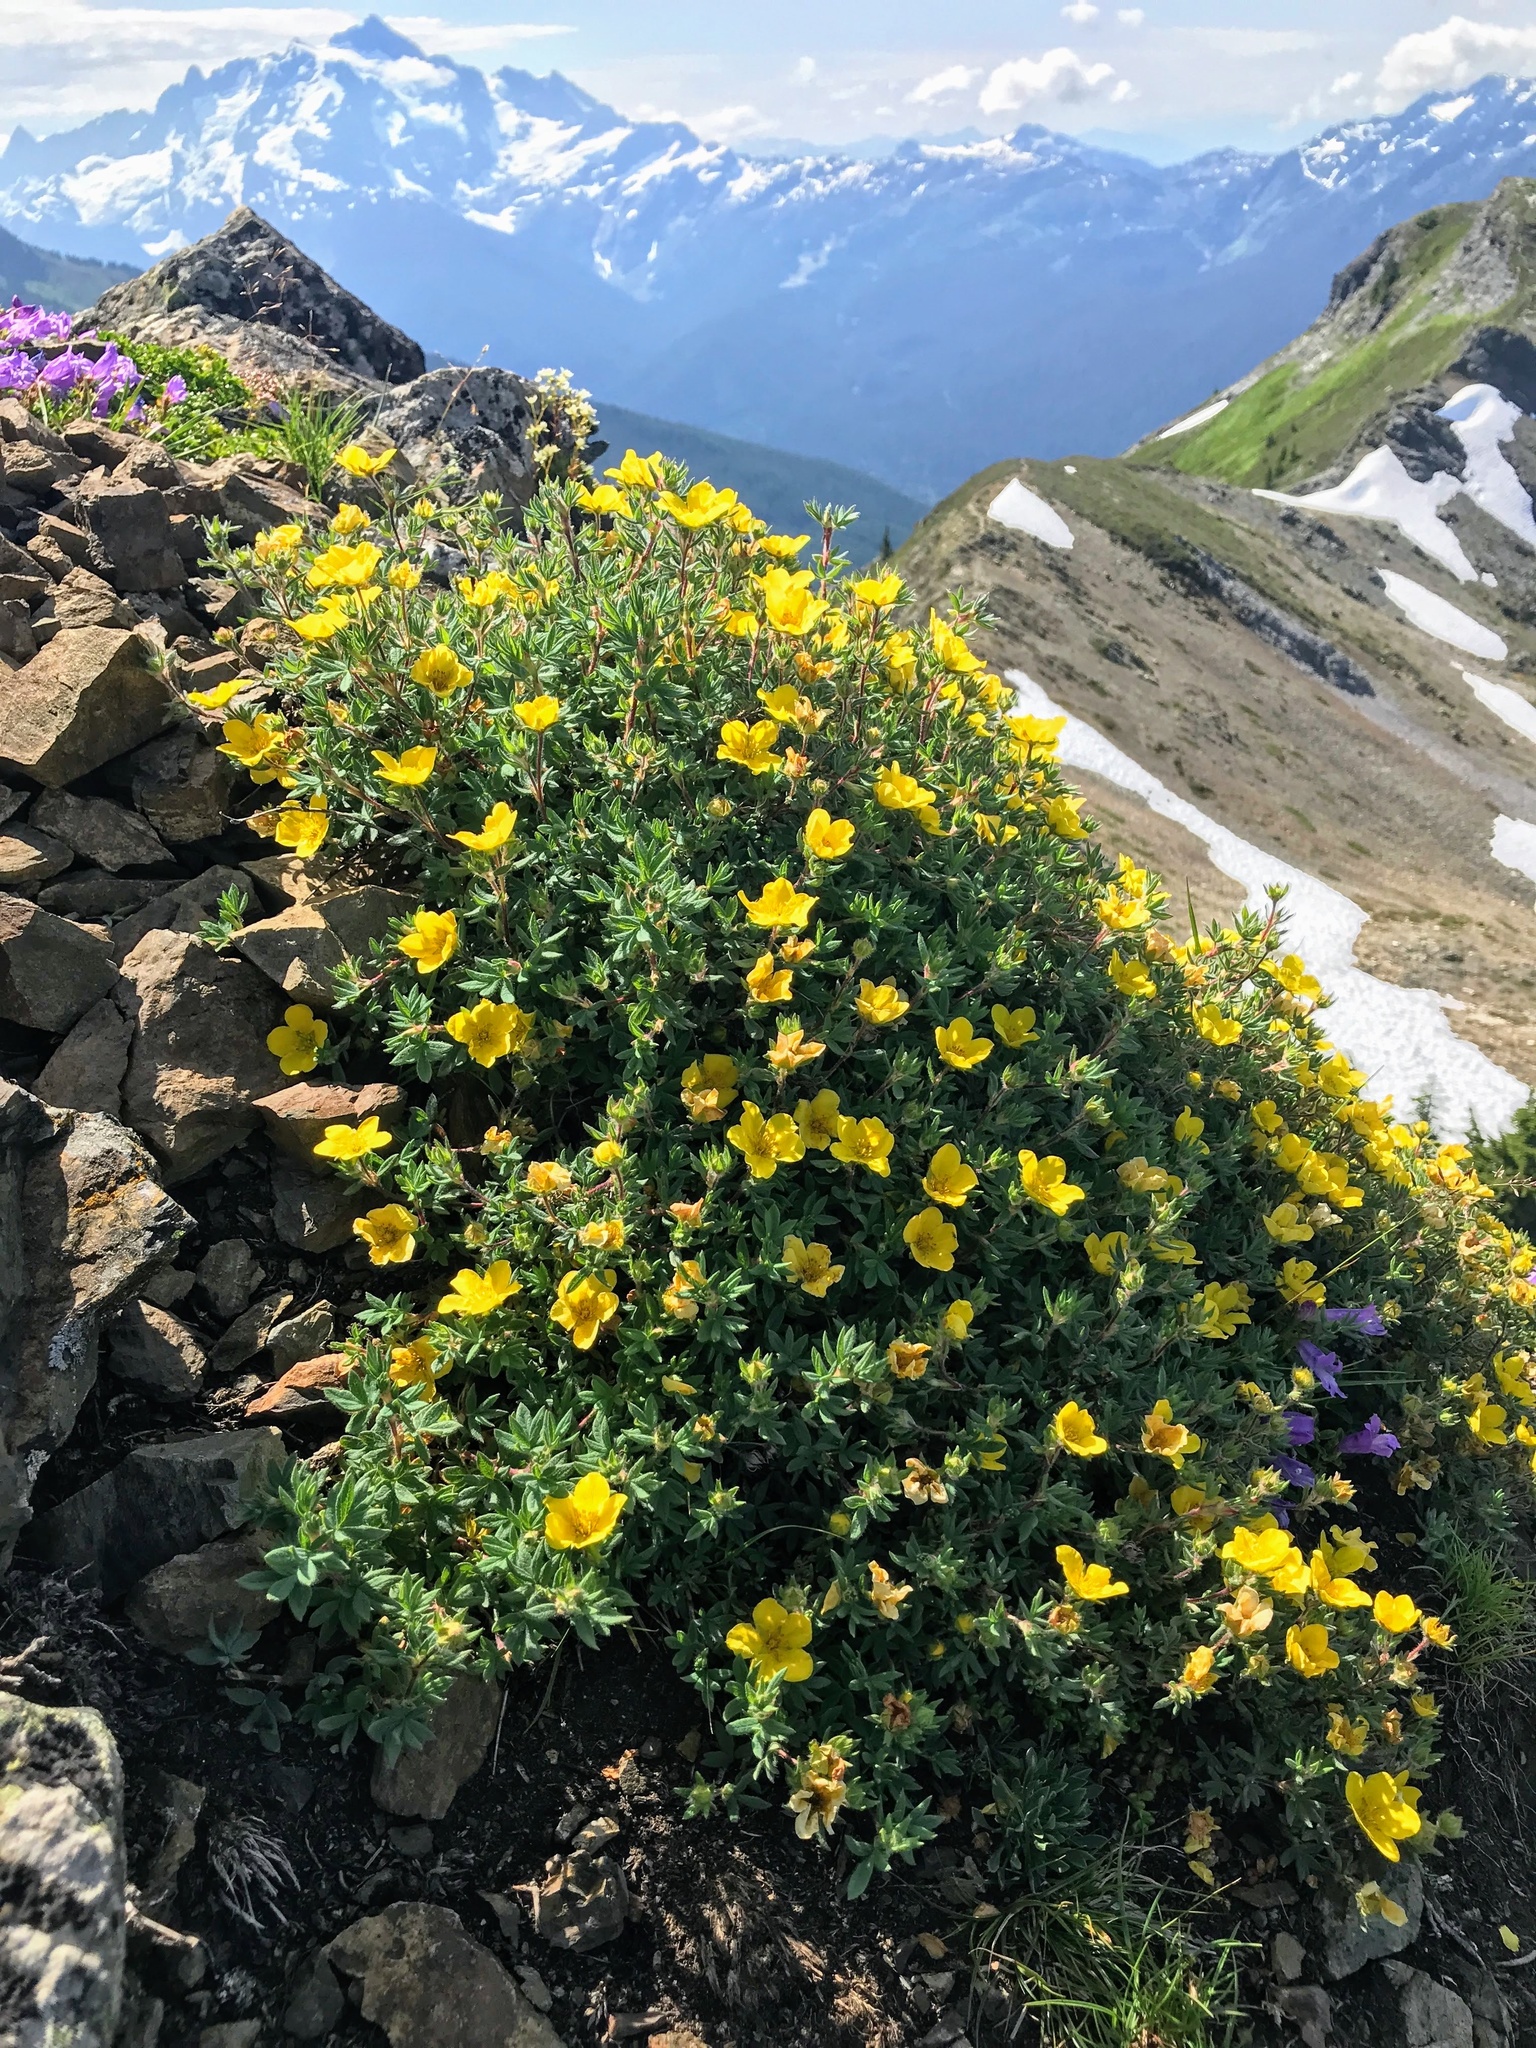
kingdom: Plantae
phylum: Tracheophyta
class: Magnoliopsida
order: Rosales
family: Rosaceae
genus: Dasiphora
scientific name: Dasiphora fruticosa
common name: Shrubby cinquefoil
